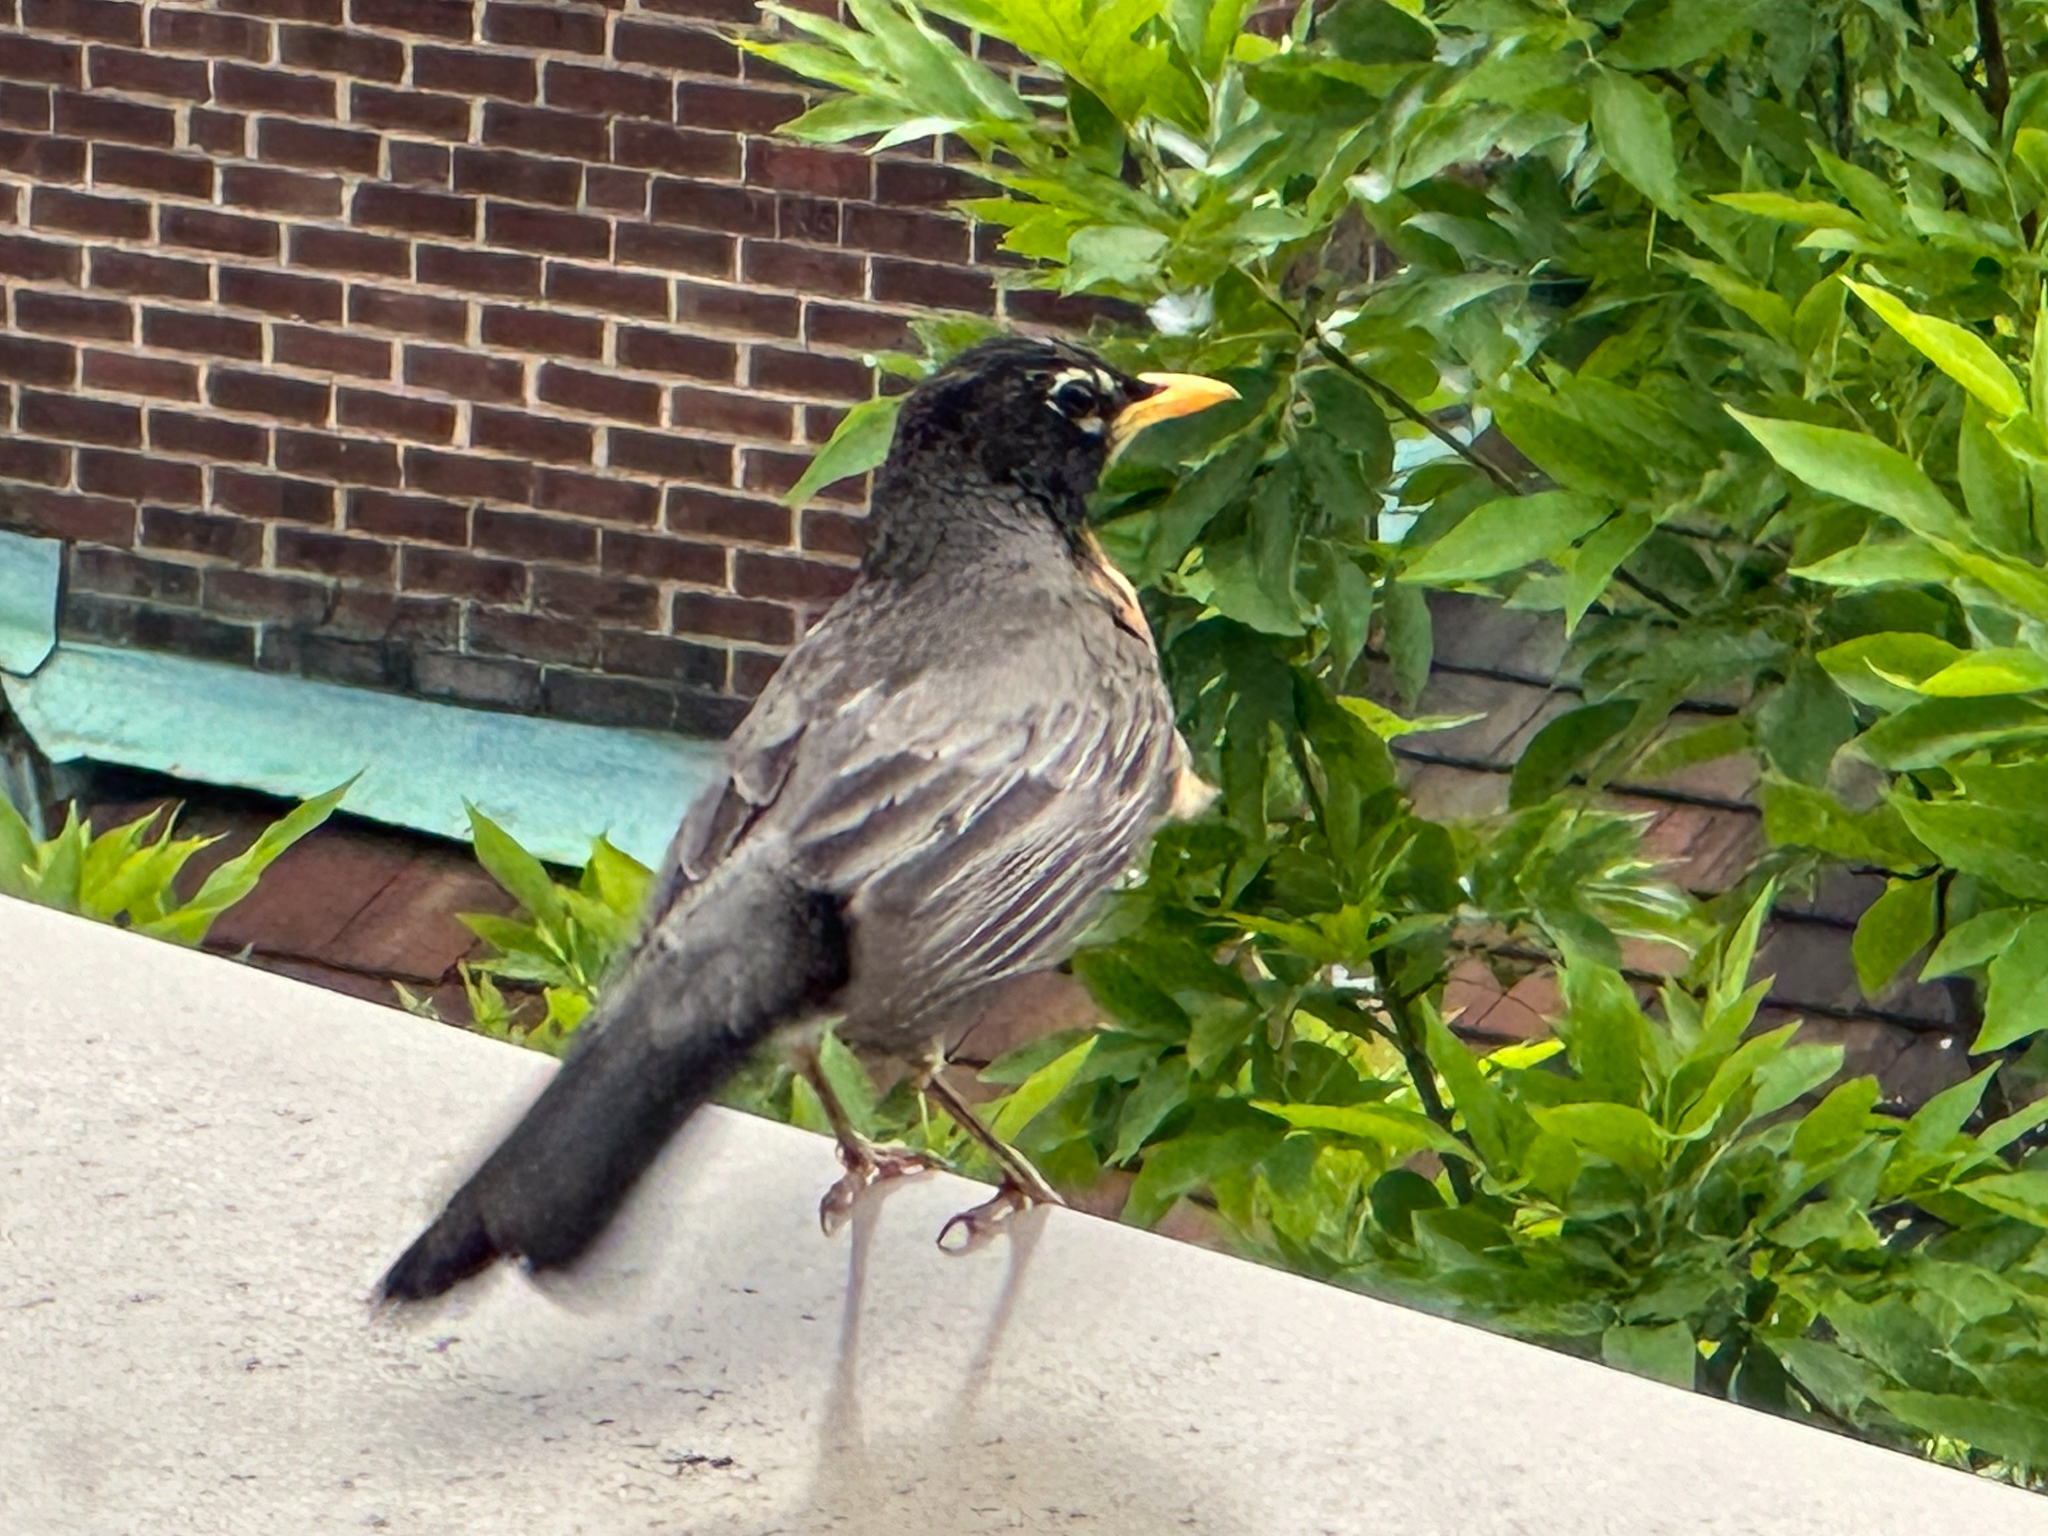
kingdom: Animalia
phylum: Chordata
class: Aves
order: Passeriformes
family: Turdidae
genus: Turdus
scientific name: Turdus migratorius
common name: American robin
